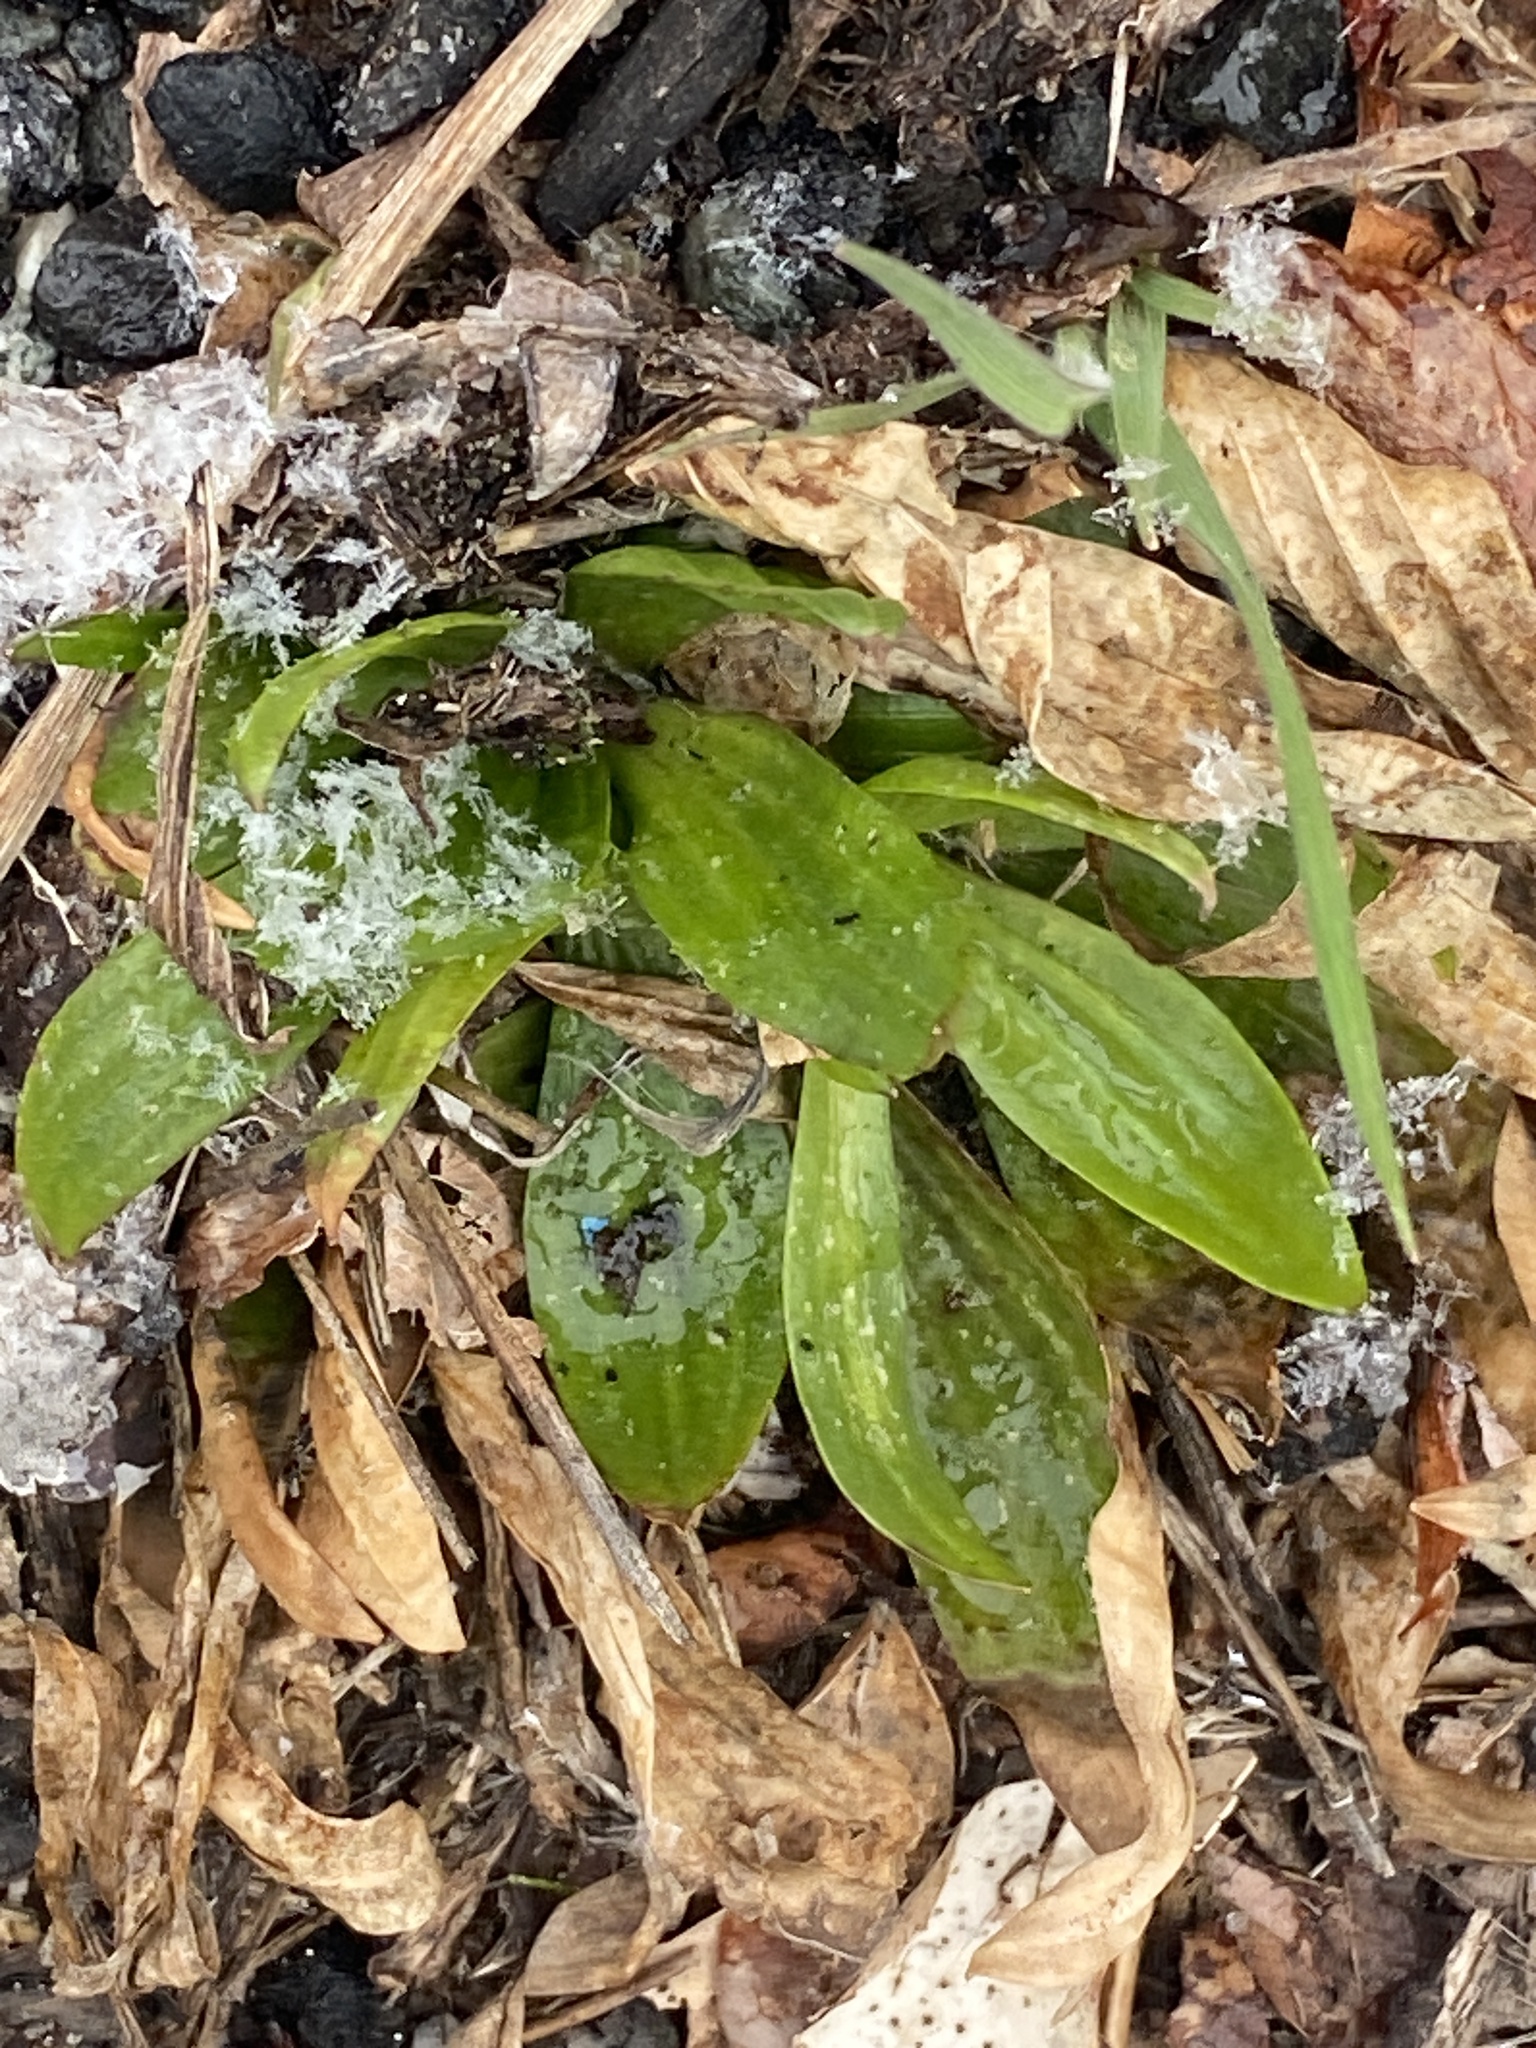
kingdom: Plantae
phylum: Tracheophyta
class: Magnoliopsida
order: Lamiales
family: Plantaginaceae
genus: Plantago
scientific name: Plantago lanceolata
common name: Ribwort plantain
